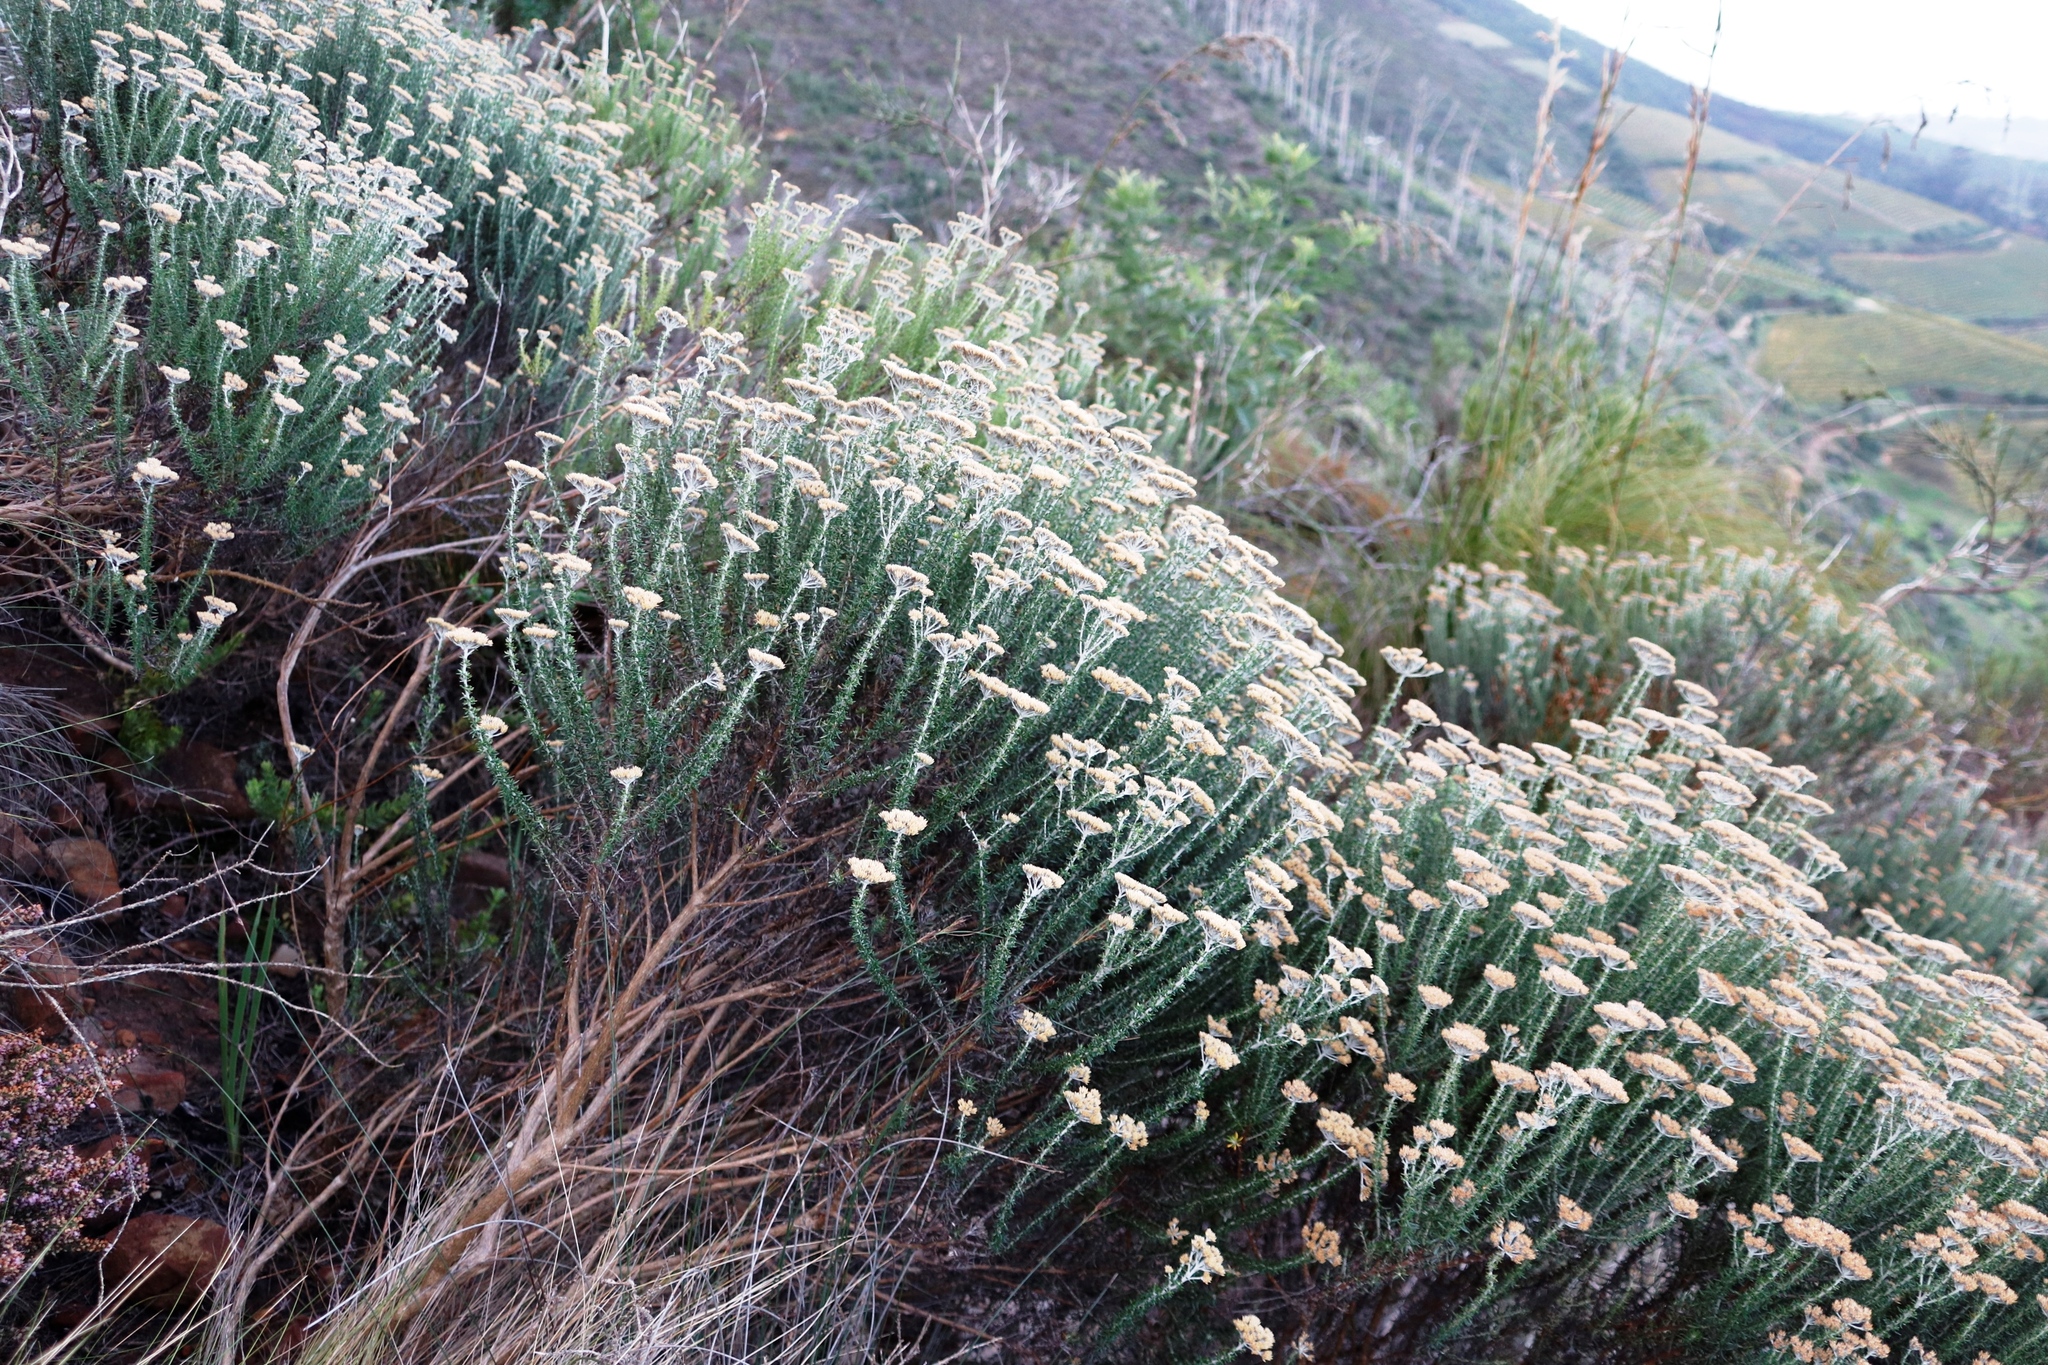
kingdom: Plantae
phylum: Tracheophyta
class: Magnoliopsida
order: Asterales
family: Asteraceae
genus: Metalasia
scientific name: Metalasia densa
